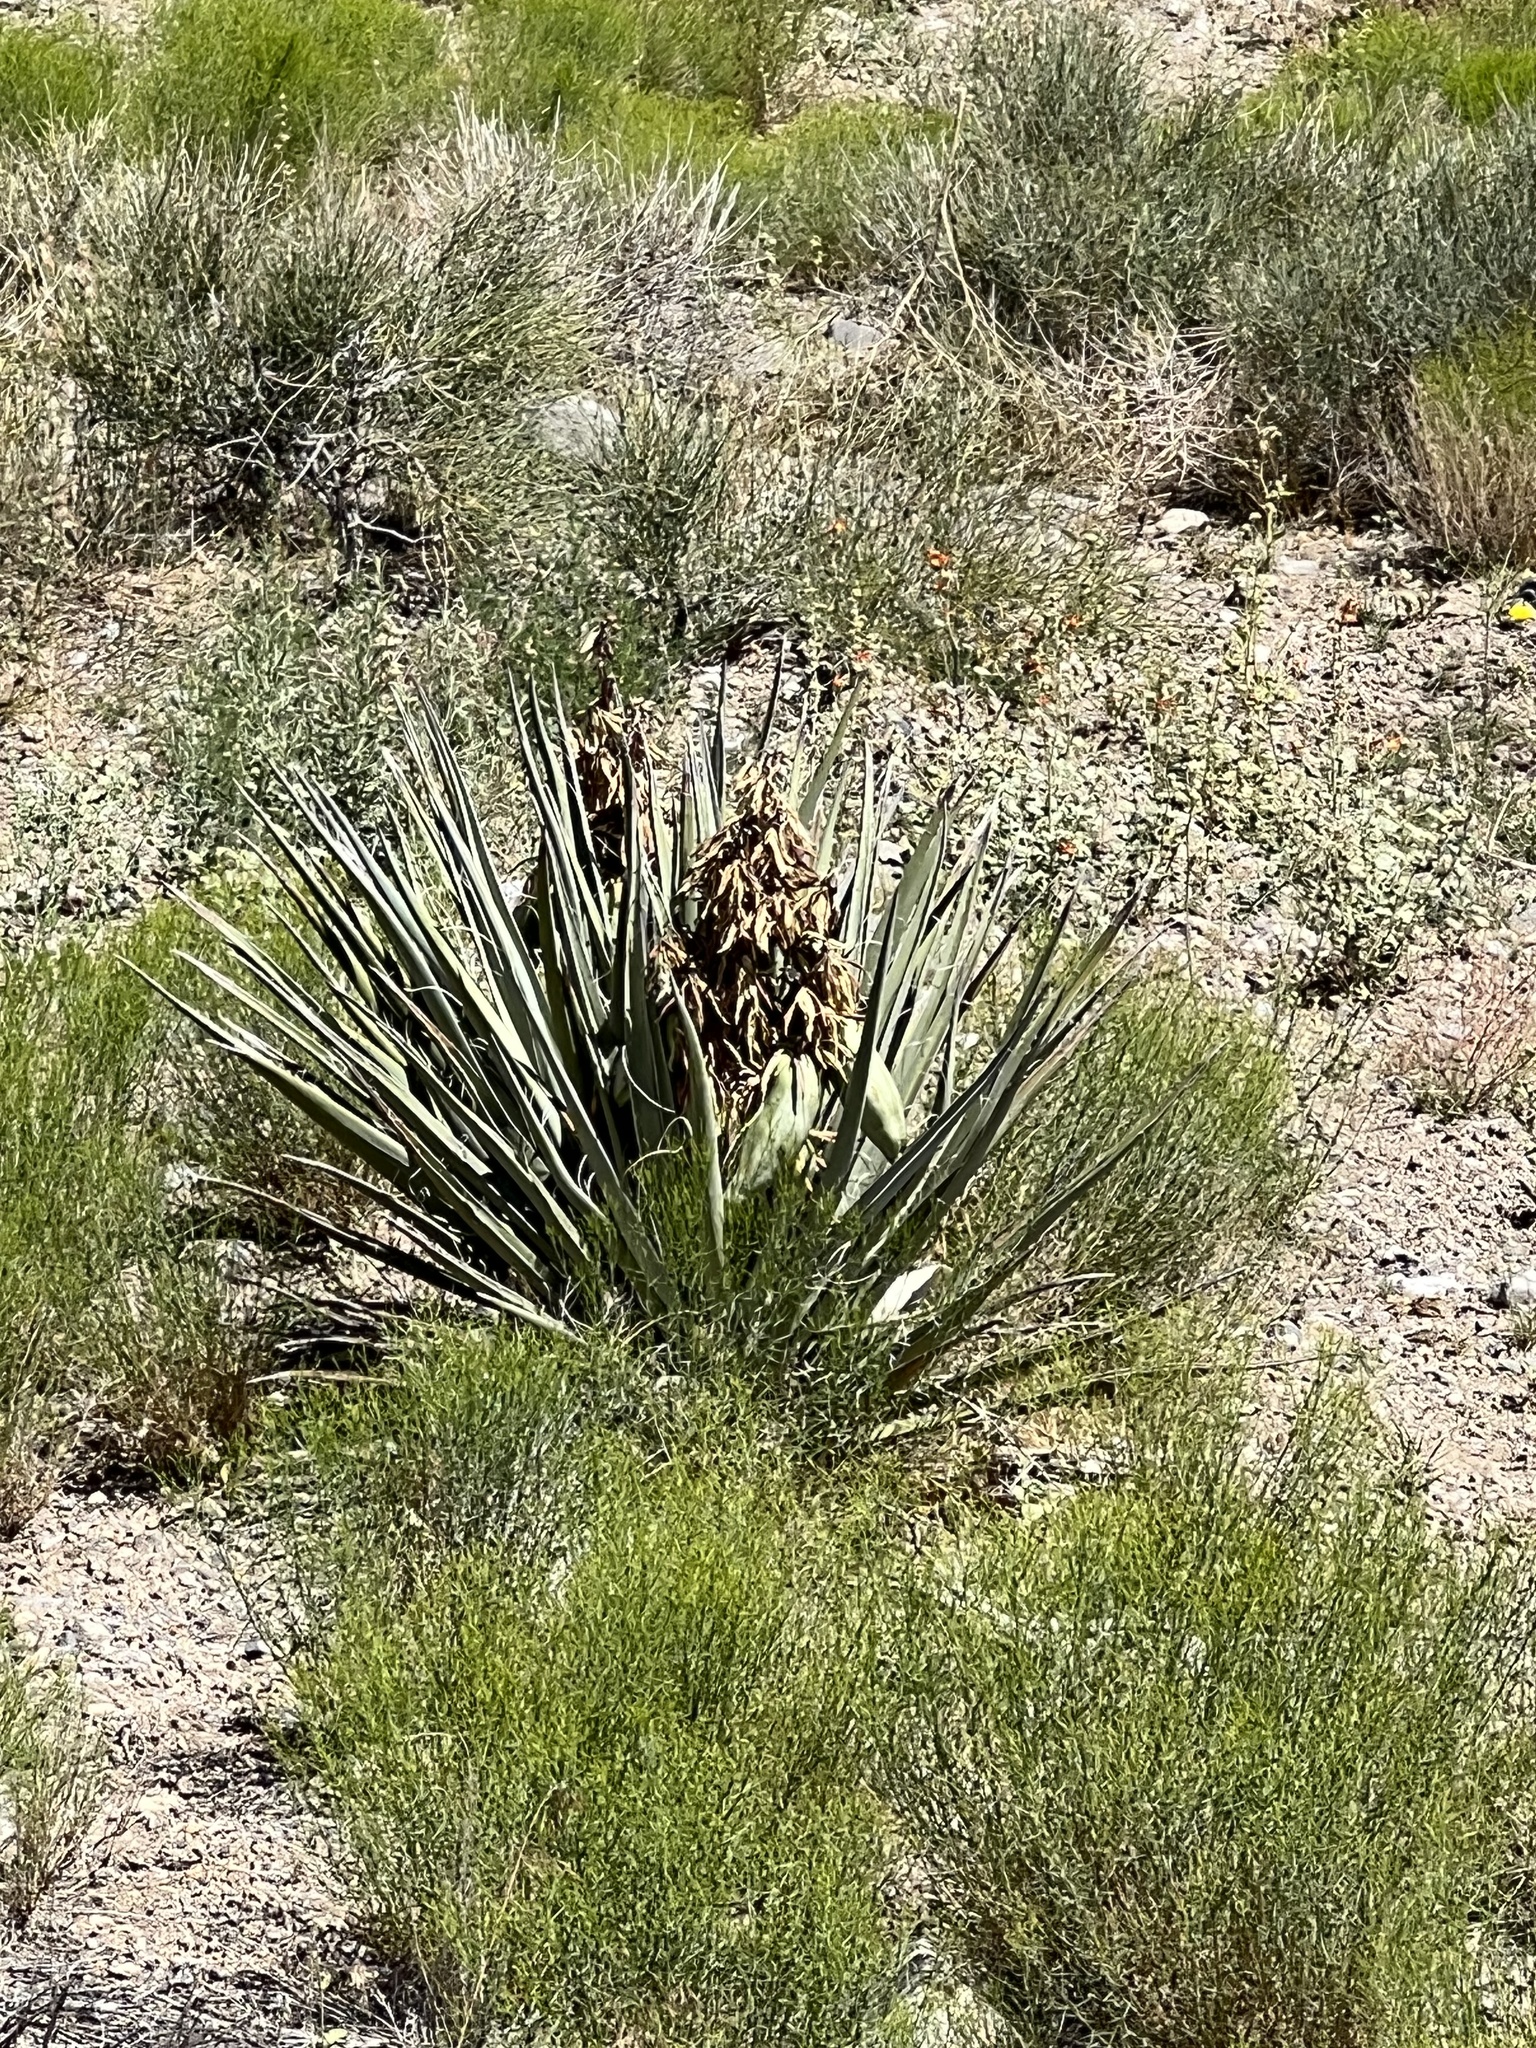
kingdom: Plantae
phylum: Tracheophyta
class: Liliopsida
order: Asparagales
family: Asparagaceae
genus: Yucca
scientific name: Yucca baccata
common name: Banana yucca
